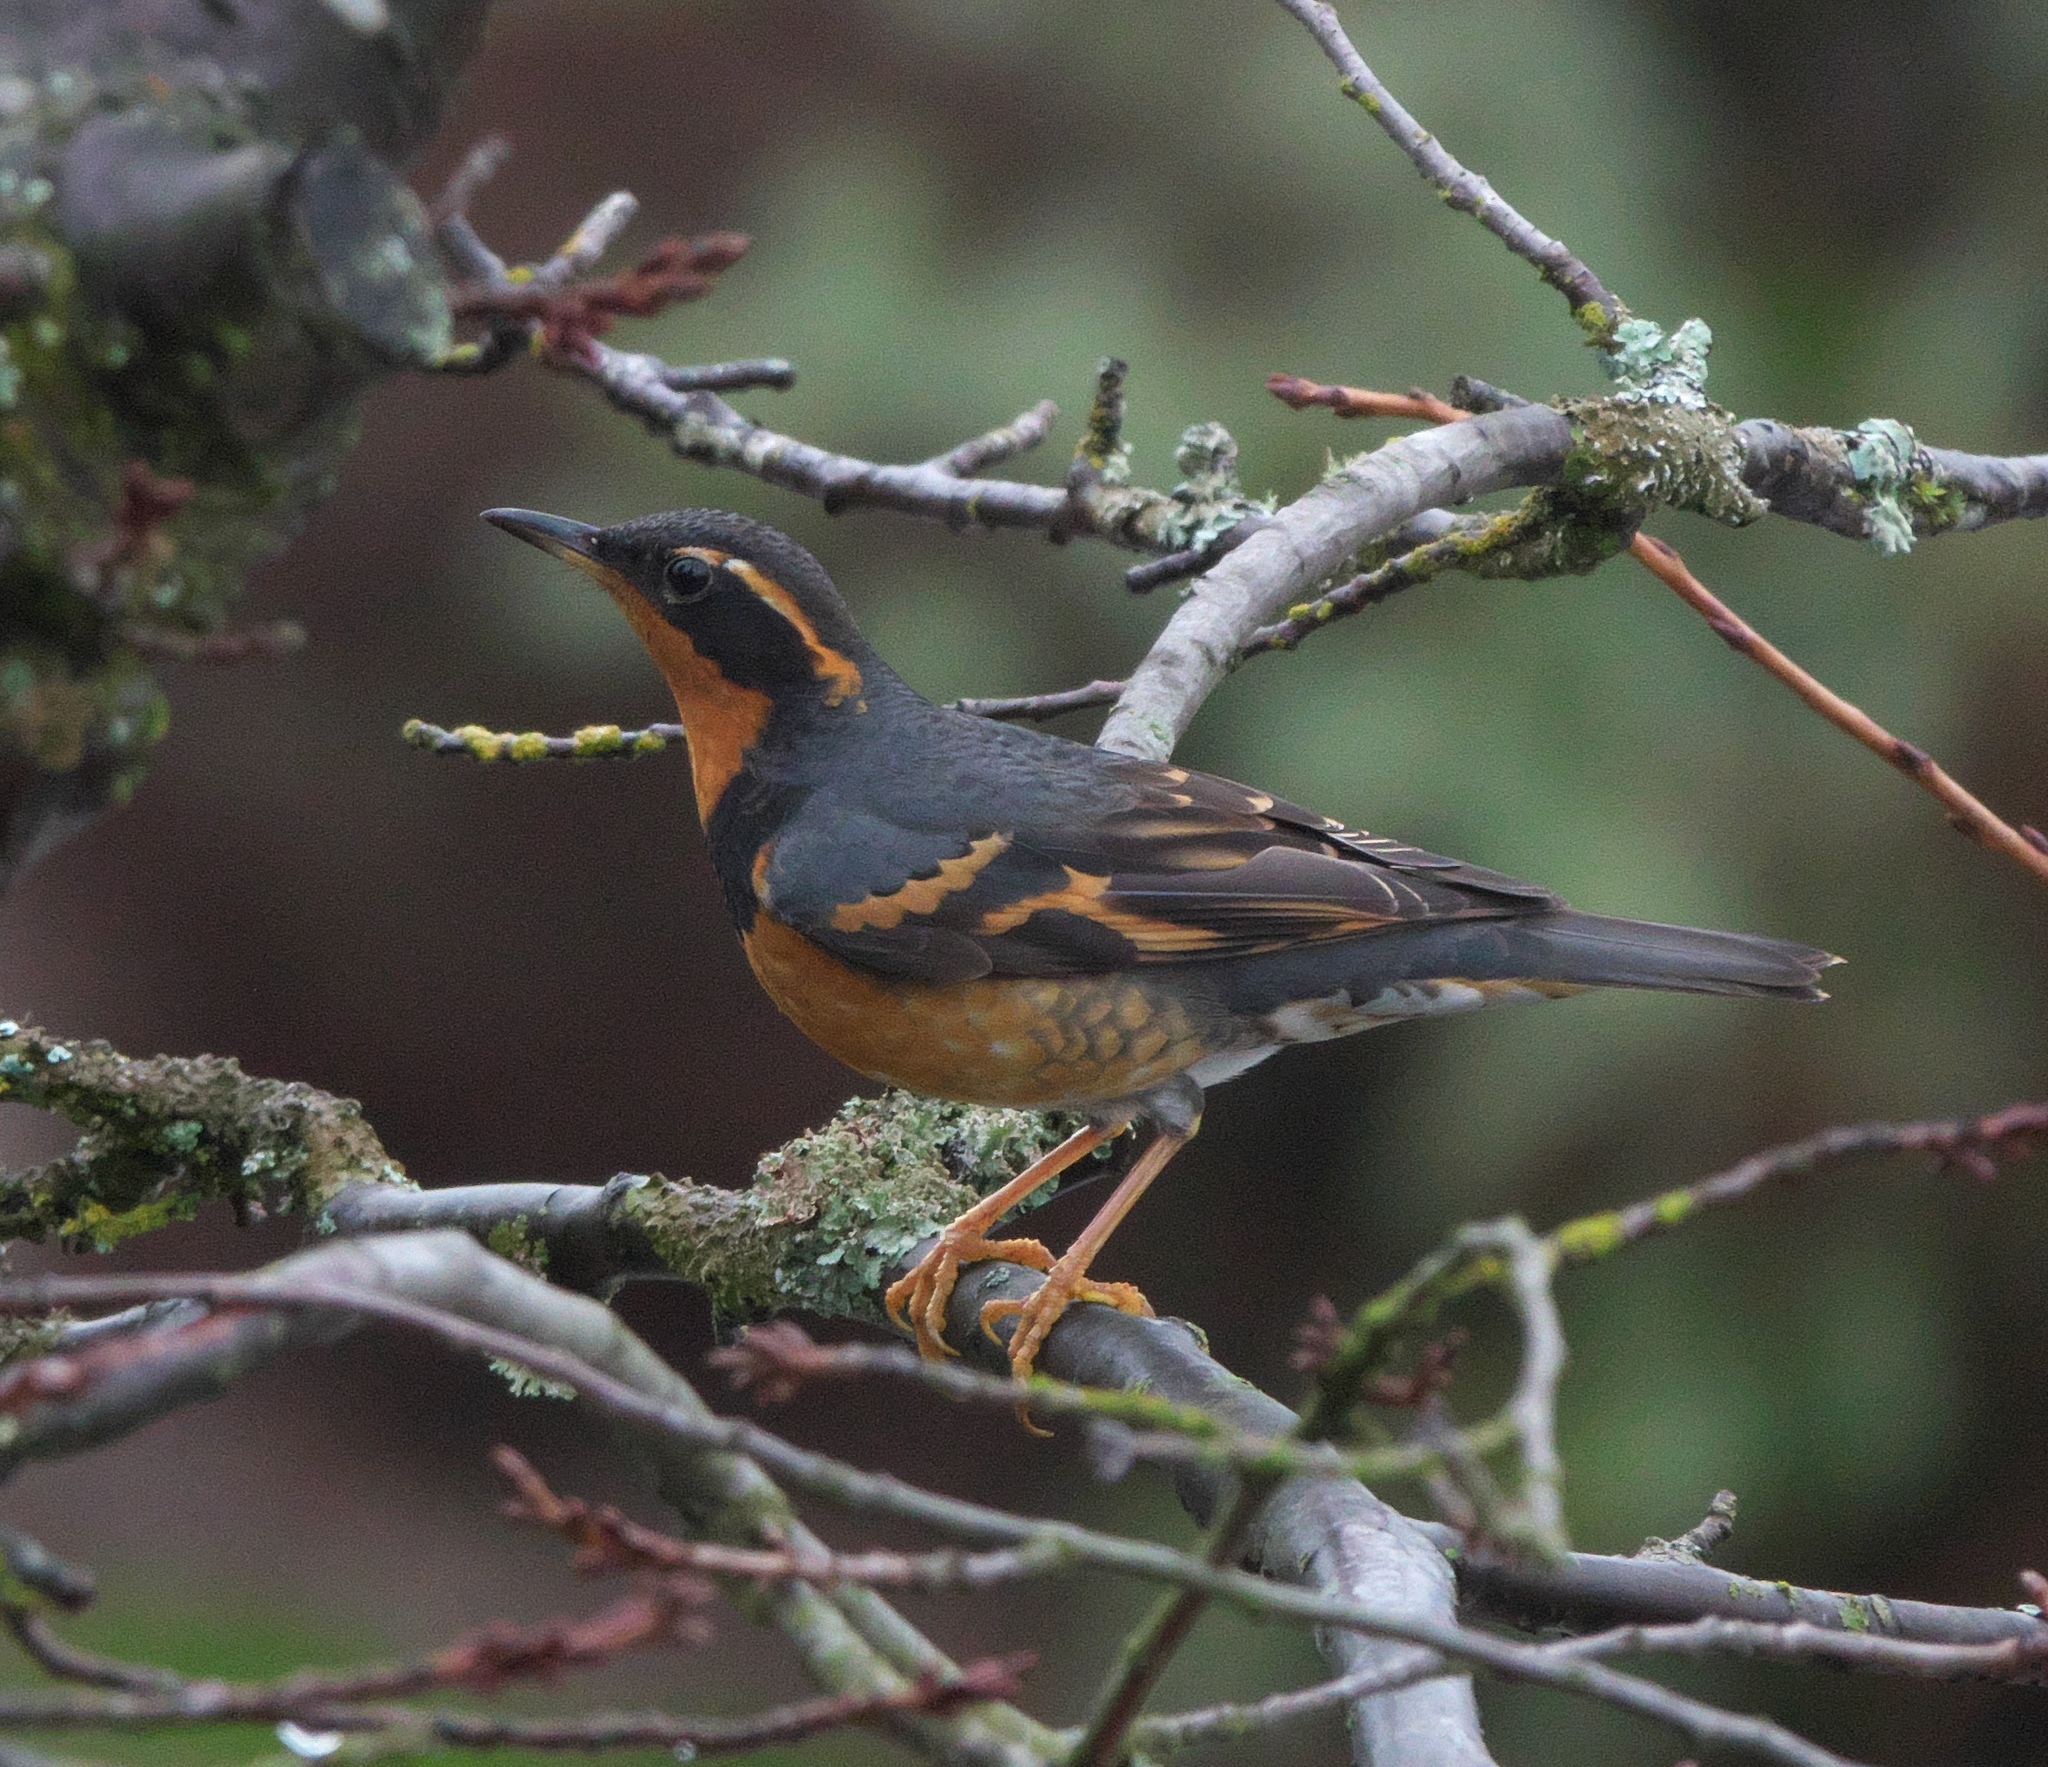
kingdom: Animalia
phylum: Chordata
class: Aves
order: Passeriformes
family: Turdidae
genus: Ixoreus
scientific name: Ixoreus naevius
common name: Varied thrush
